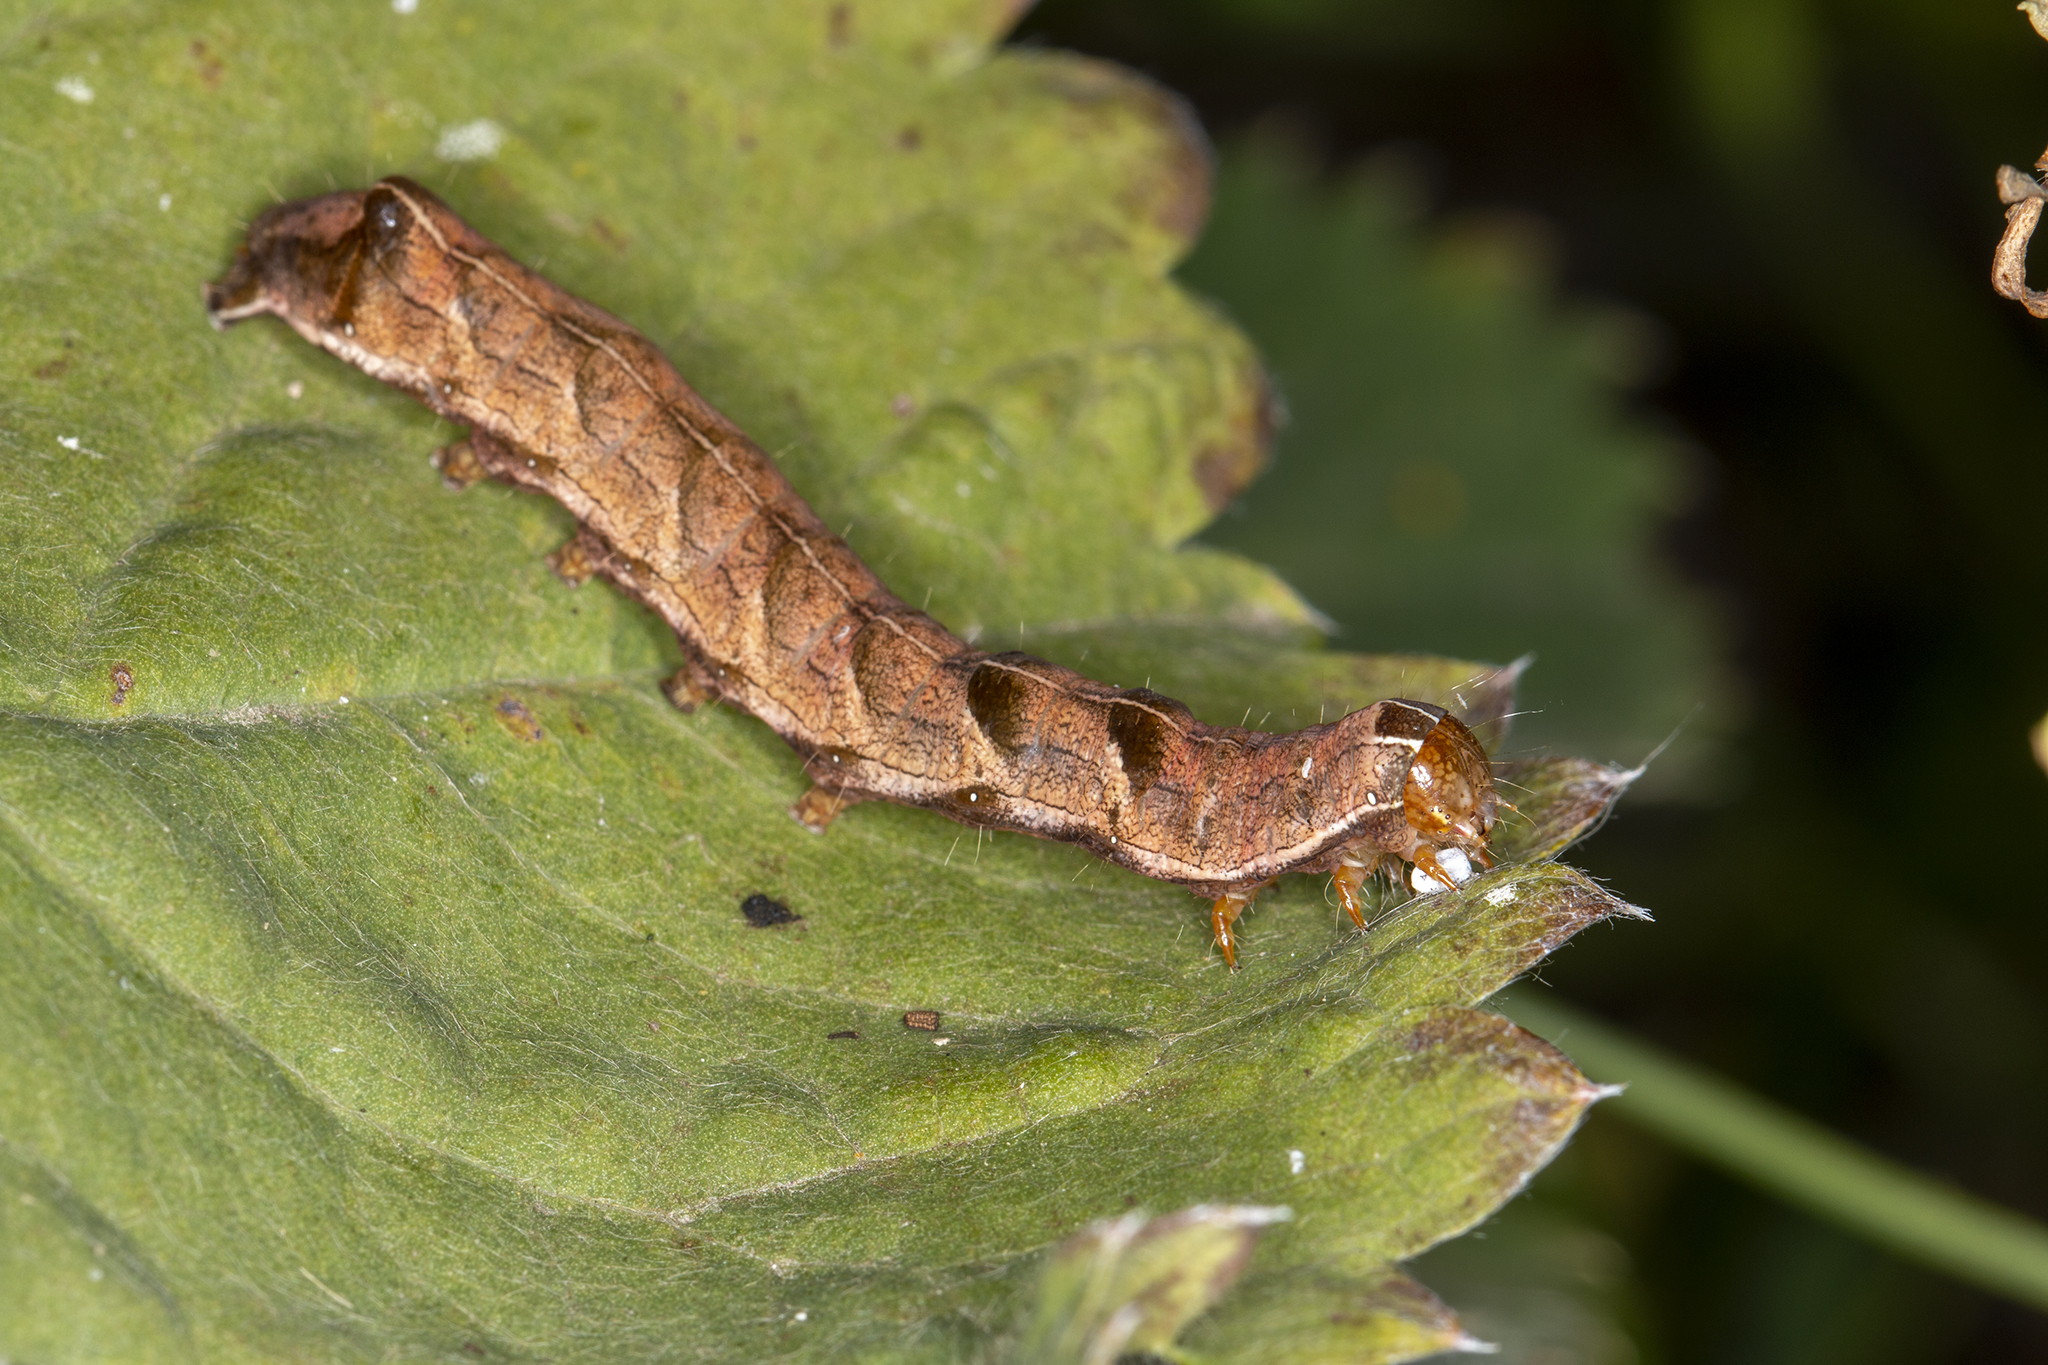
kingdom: Animalia
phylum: Arthropoda
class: Insecta
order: Lepidoptera
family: Noctuidae
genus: Melanchra
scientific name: Melanchra persicariae
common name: Dot moth
